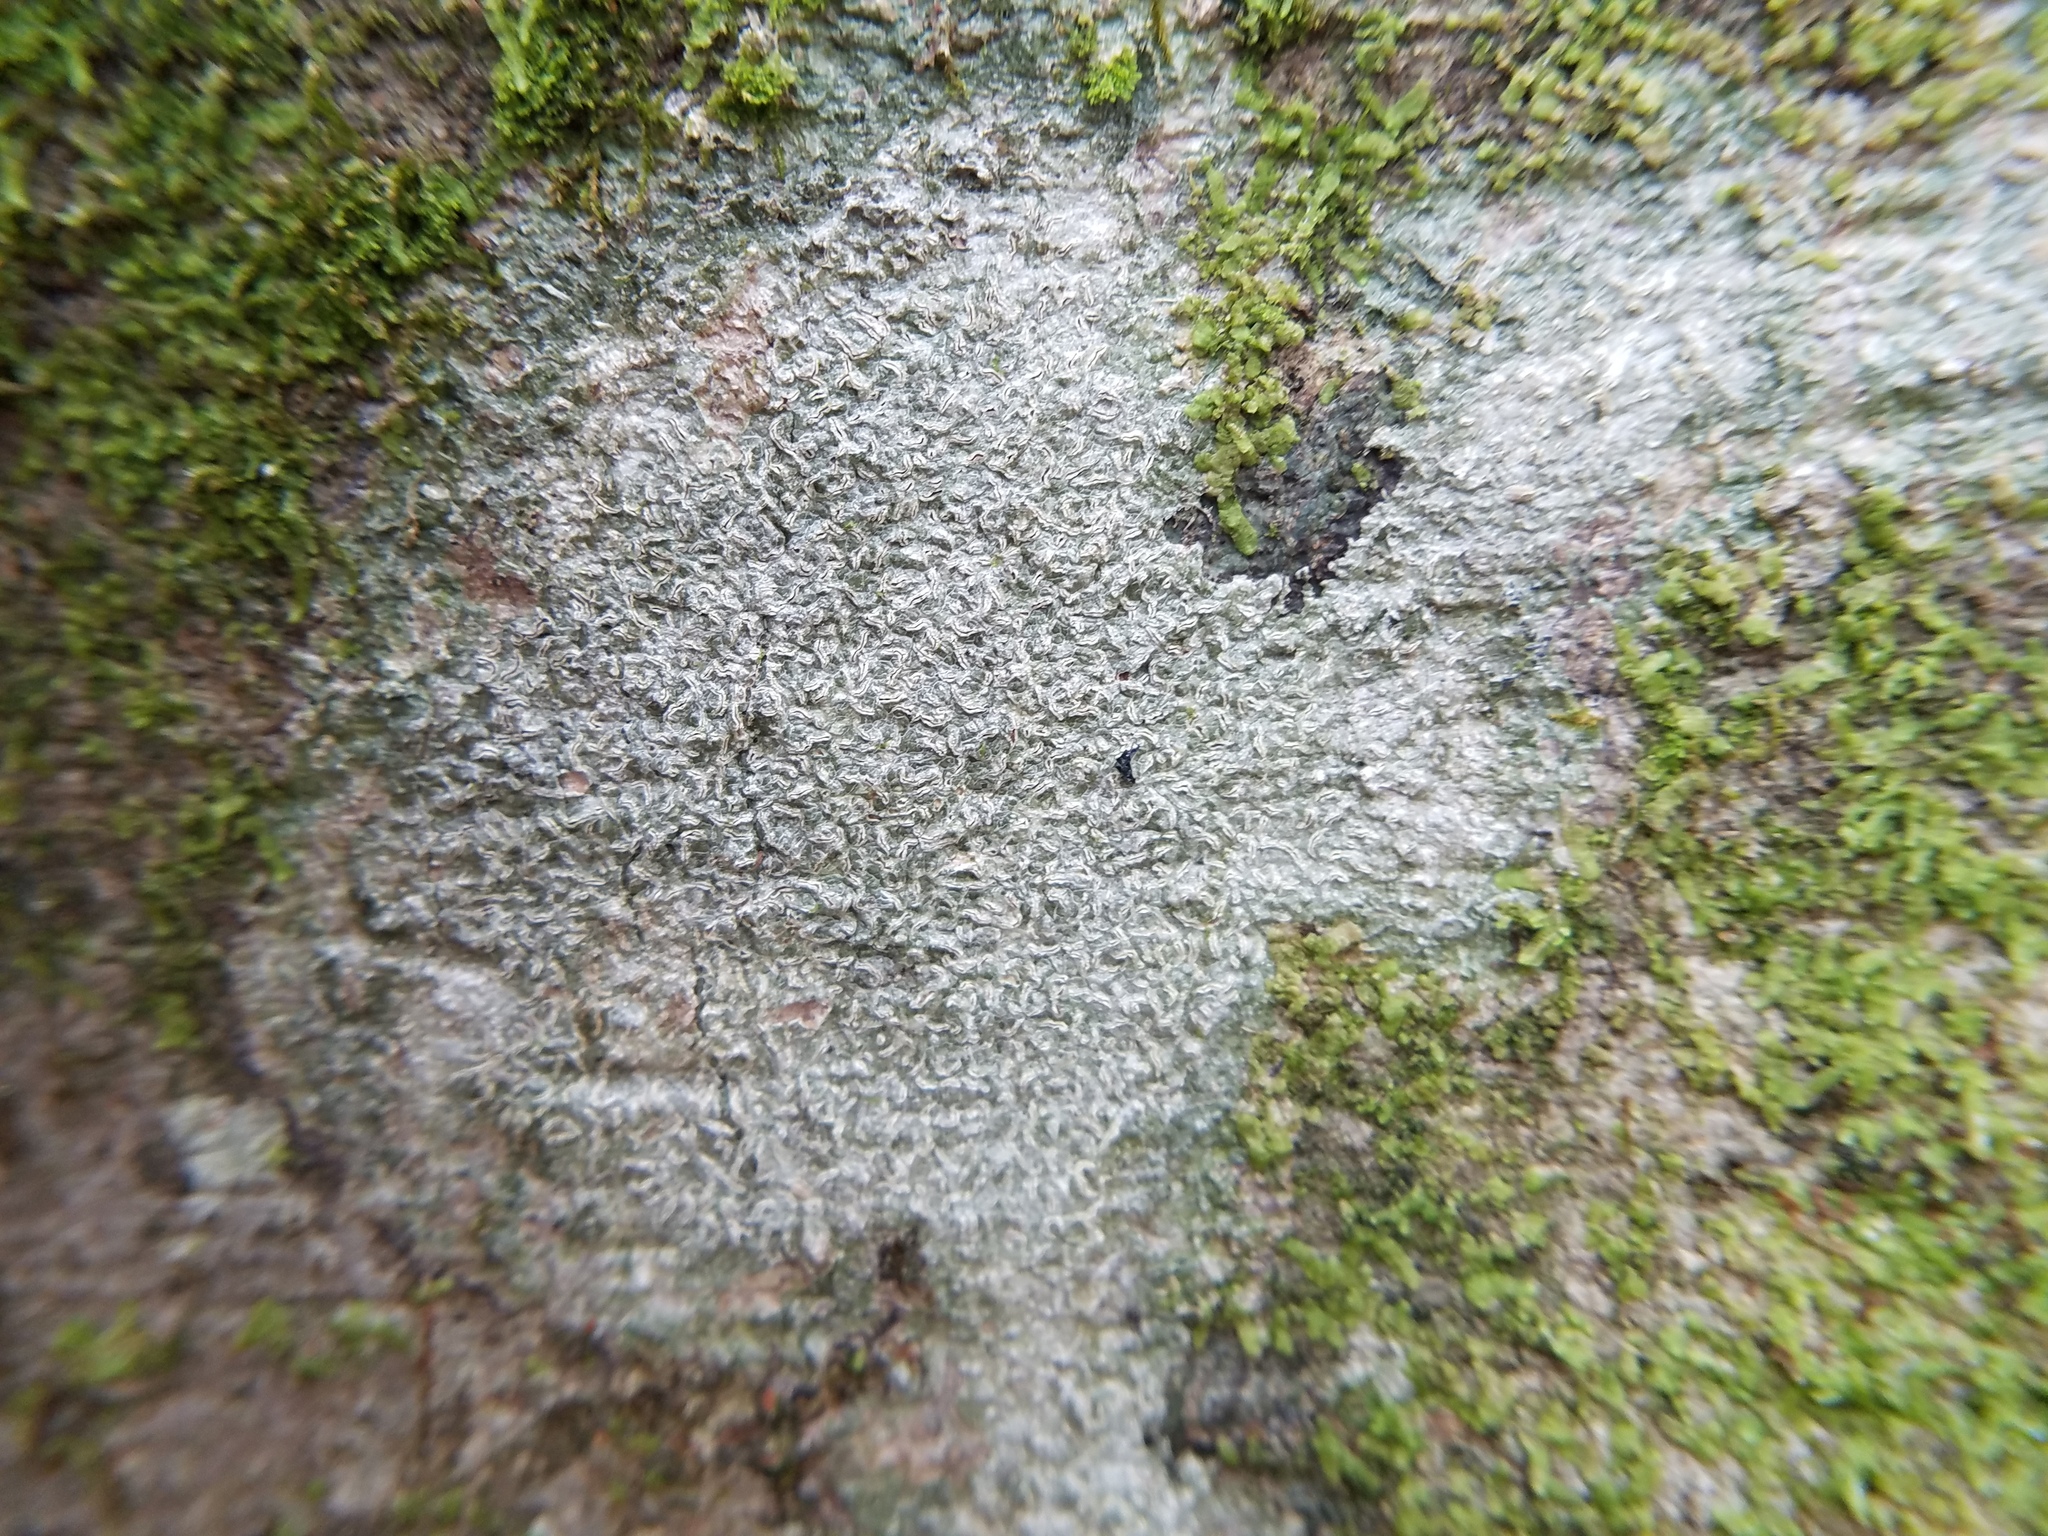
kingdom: Fungi
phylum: Ascomycota
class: Lecanoromycetes
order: Ostropales
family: Graphidaceae
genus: Fissurina
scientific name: Fissurina insidiosa
